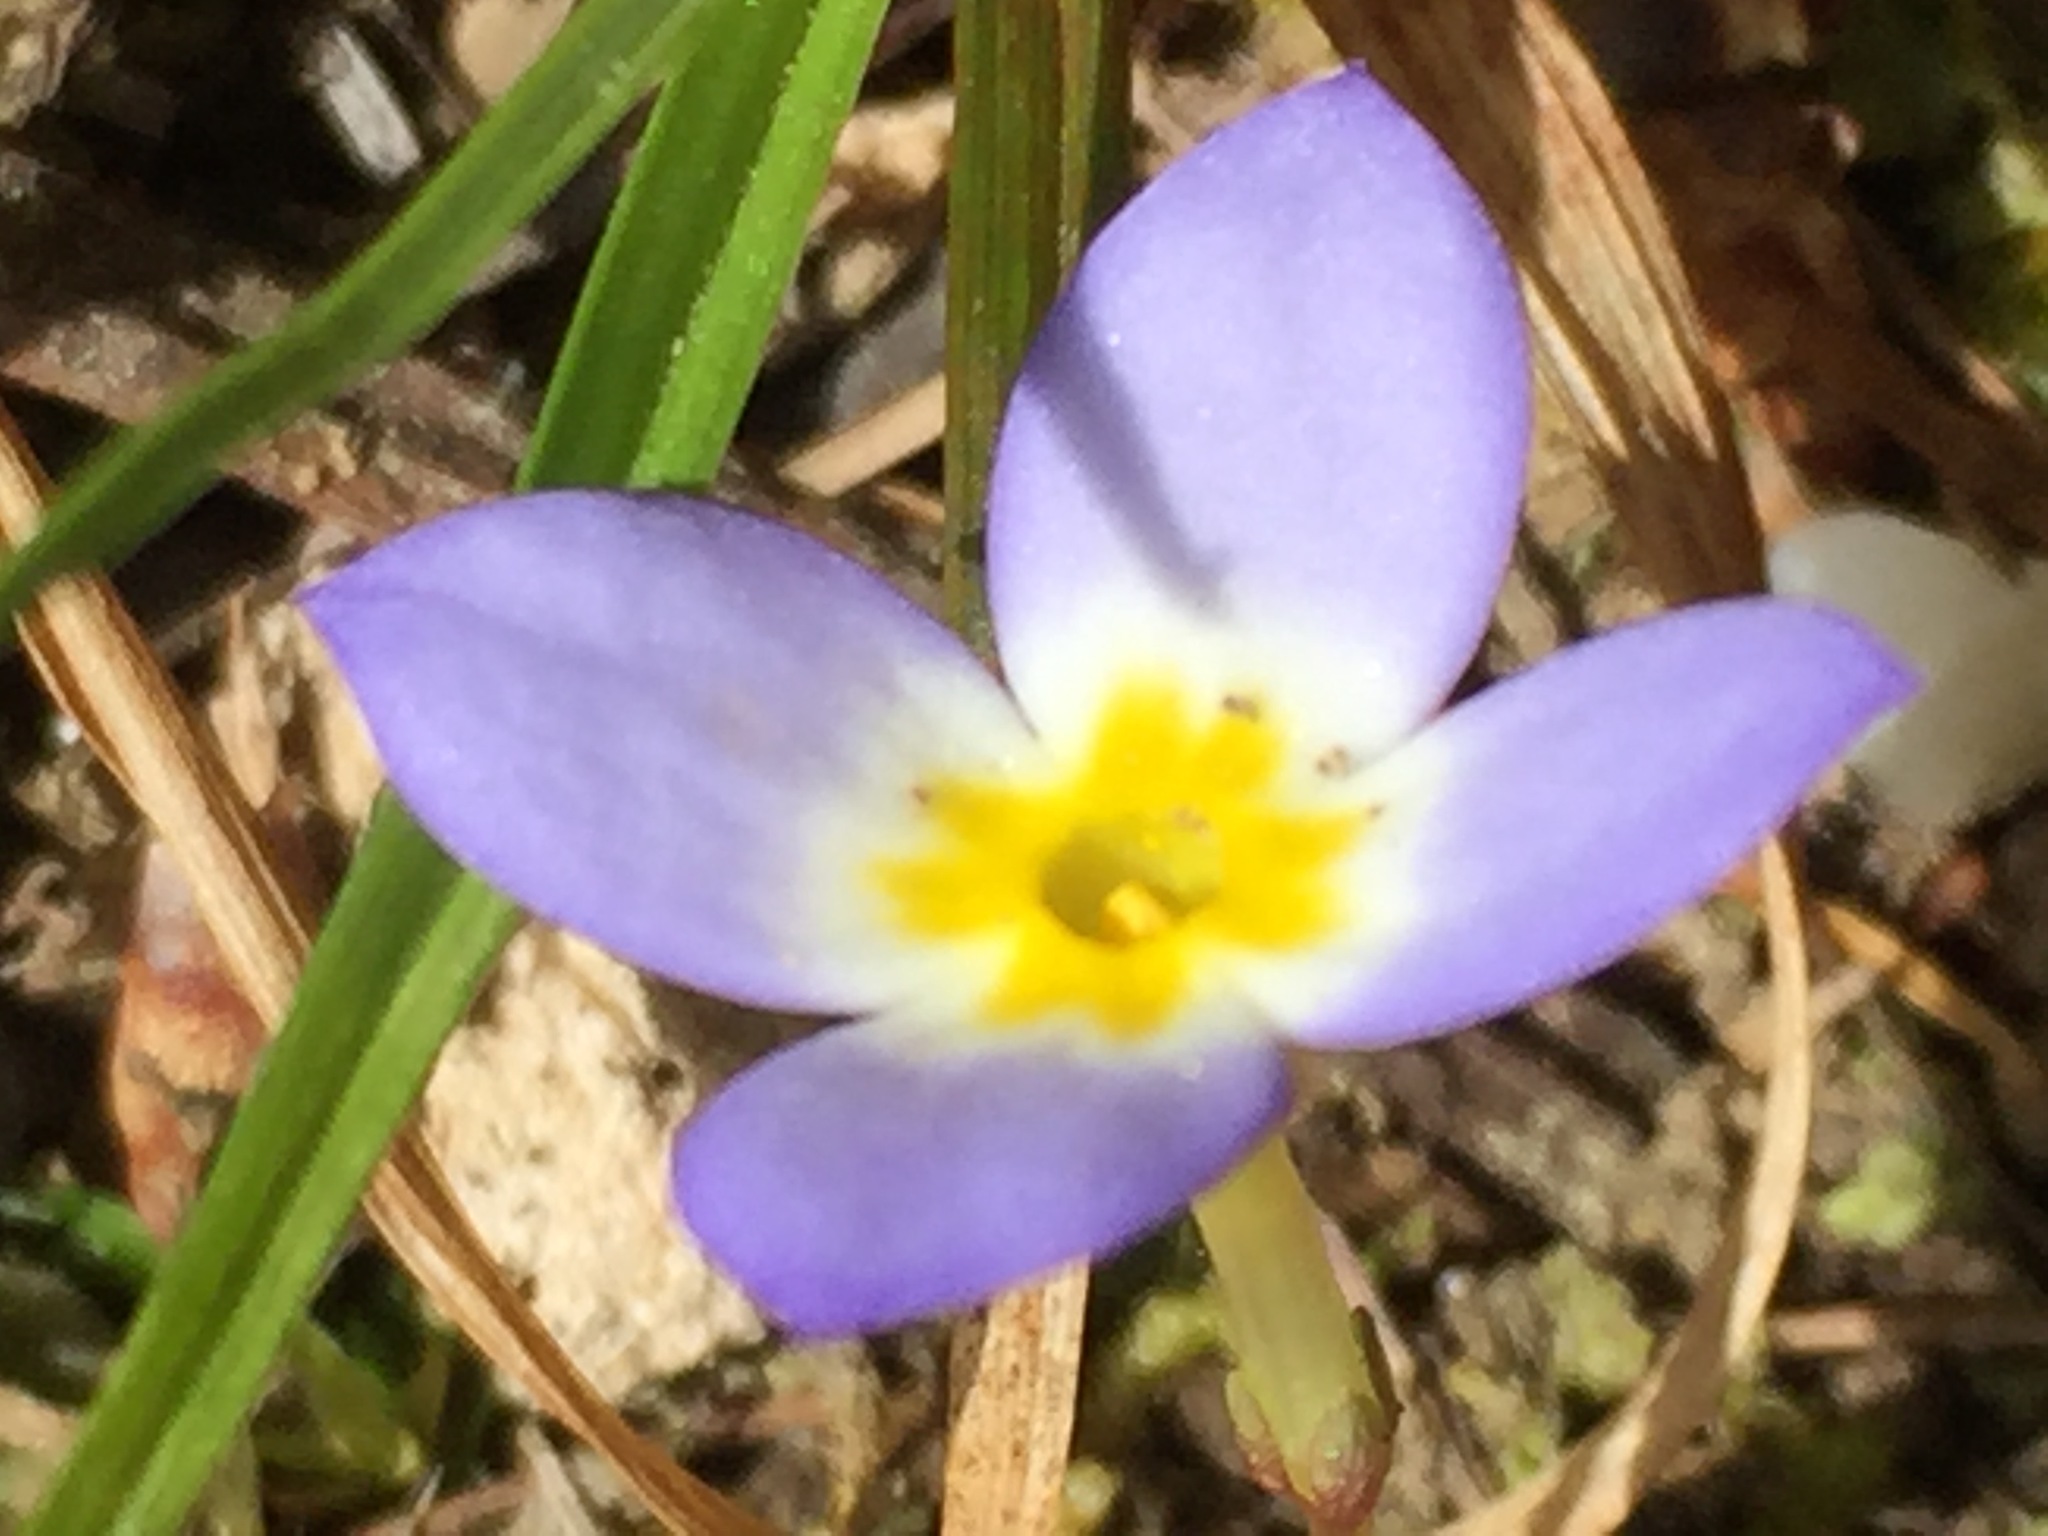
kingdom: Plantae
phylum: Tracheophyta
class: Magnoliopsida
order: Gentianales
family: Rubiaceae
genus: Houstonia
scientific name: Houstonia caerulea
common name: Bluets
